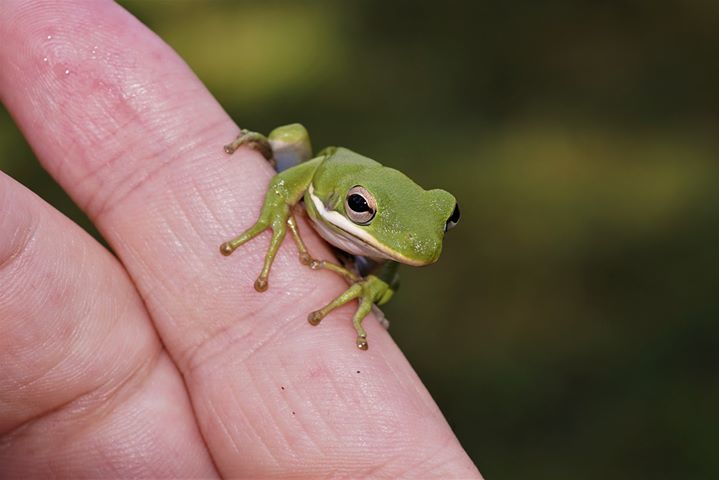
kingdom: Animalia
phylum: Chordata
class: Amphibia
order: Anura
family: Hylidae
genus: Dryophytes
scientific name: Dryophytes cinereus
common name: Green treefrog
